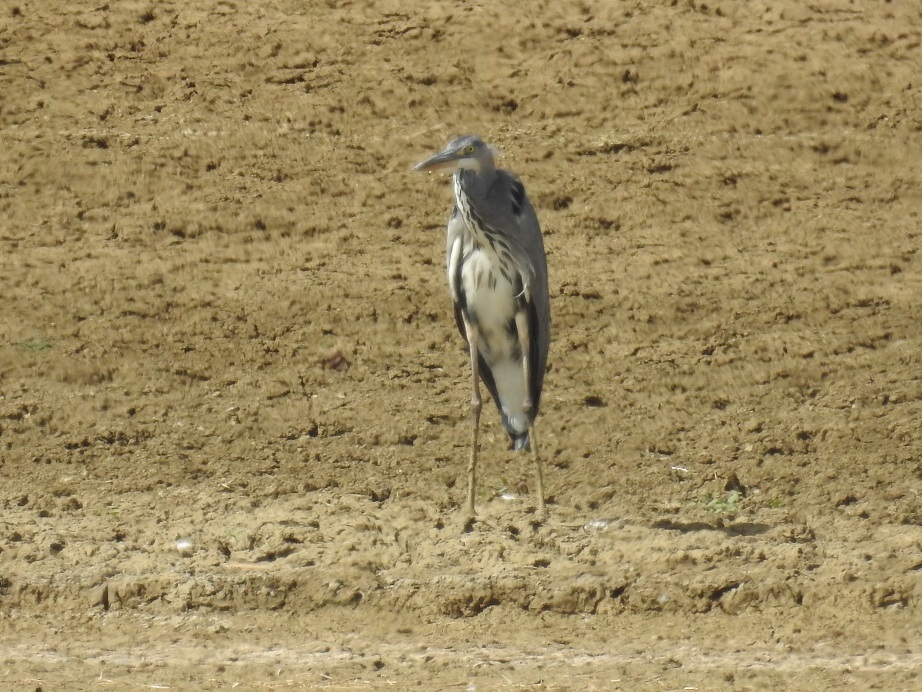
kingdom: Animalia
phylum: Chordata
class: Aves
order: Pelecaniformes
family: Ardeidae
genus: Ardea
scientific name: Ardea cinerea
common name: Grey heron
